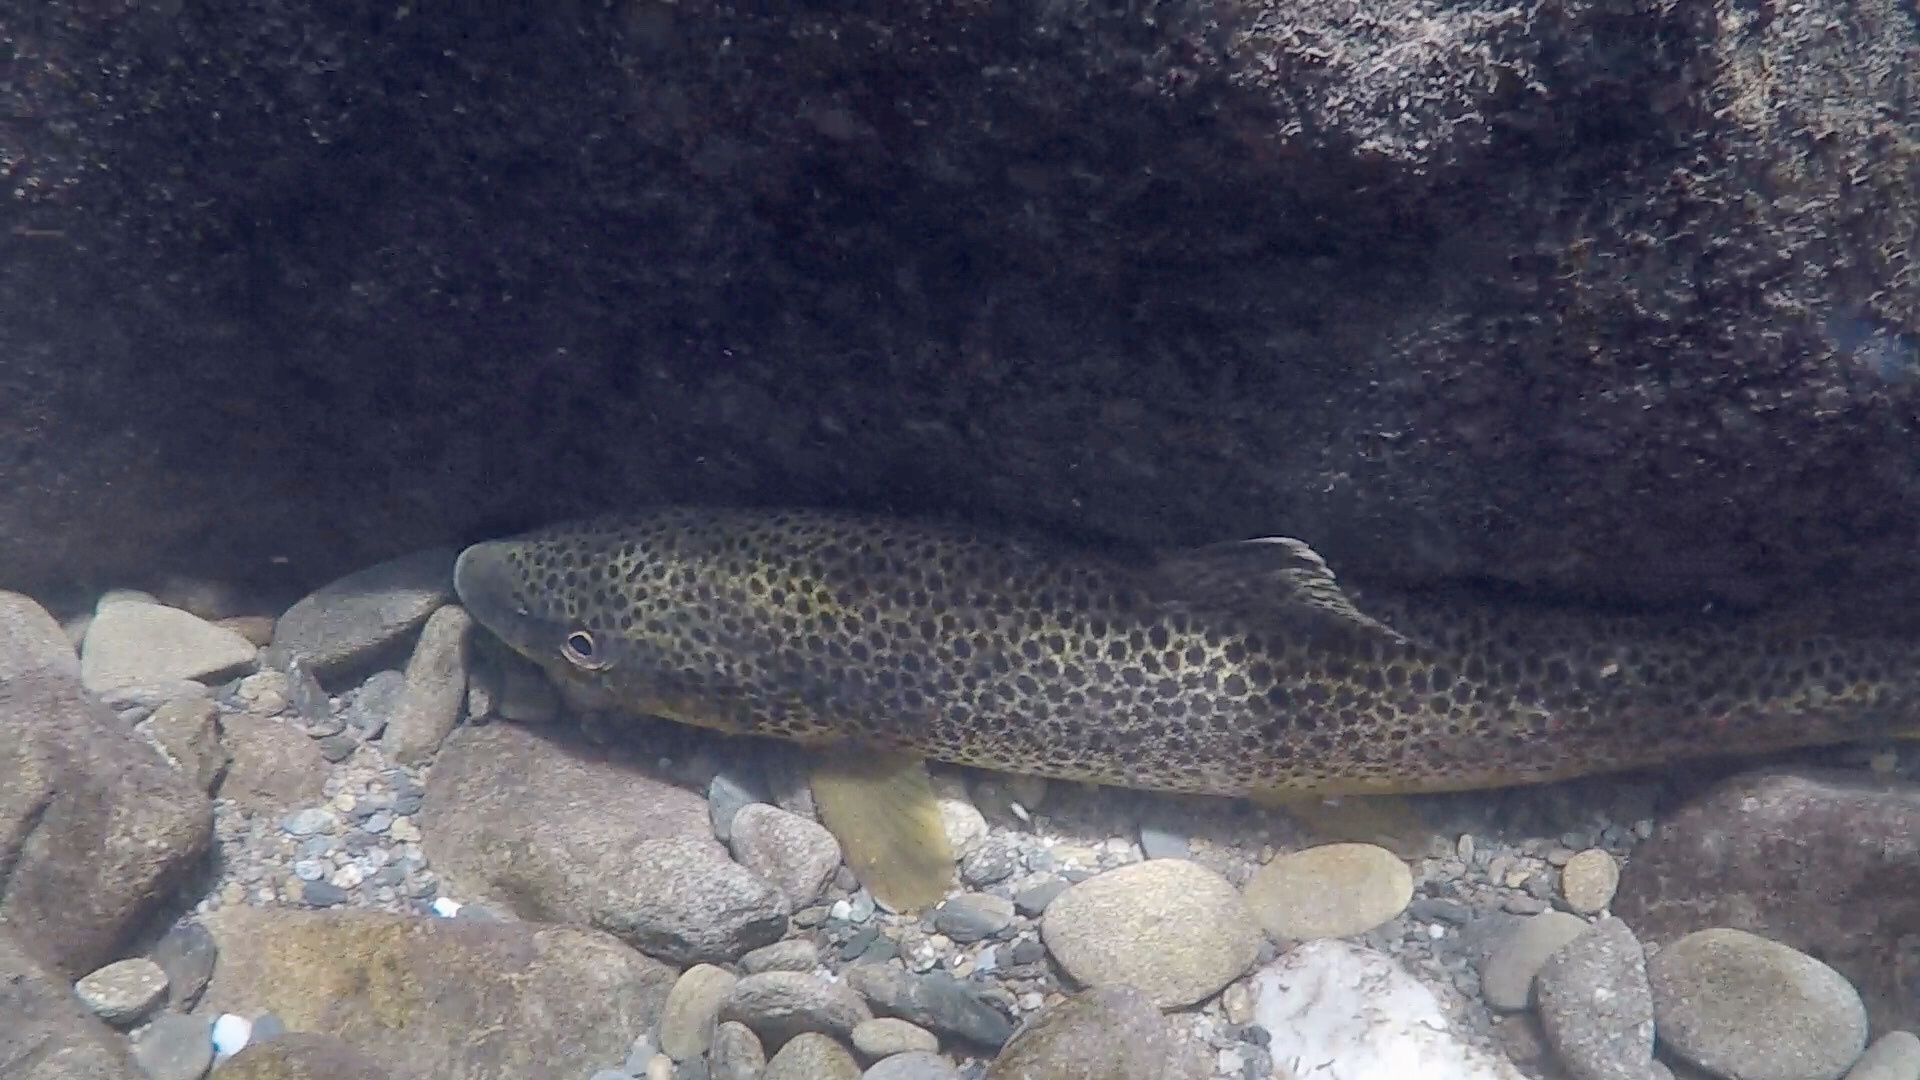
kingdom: Animalia
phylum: Chordata
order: Salmoniformes
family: Salmonidae
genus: Salmo
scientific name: Salmo trutta
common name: Brown trout
